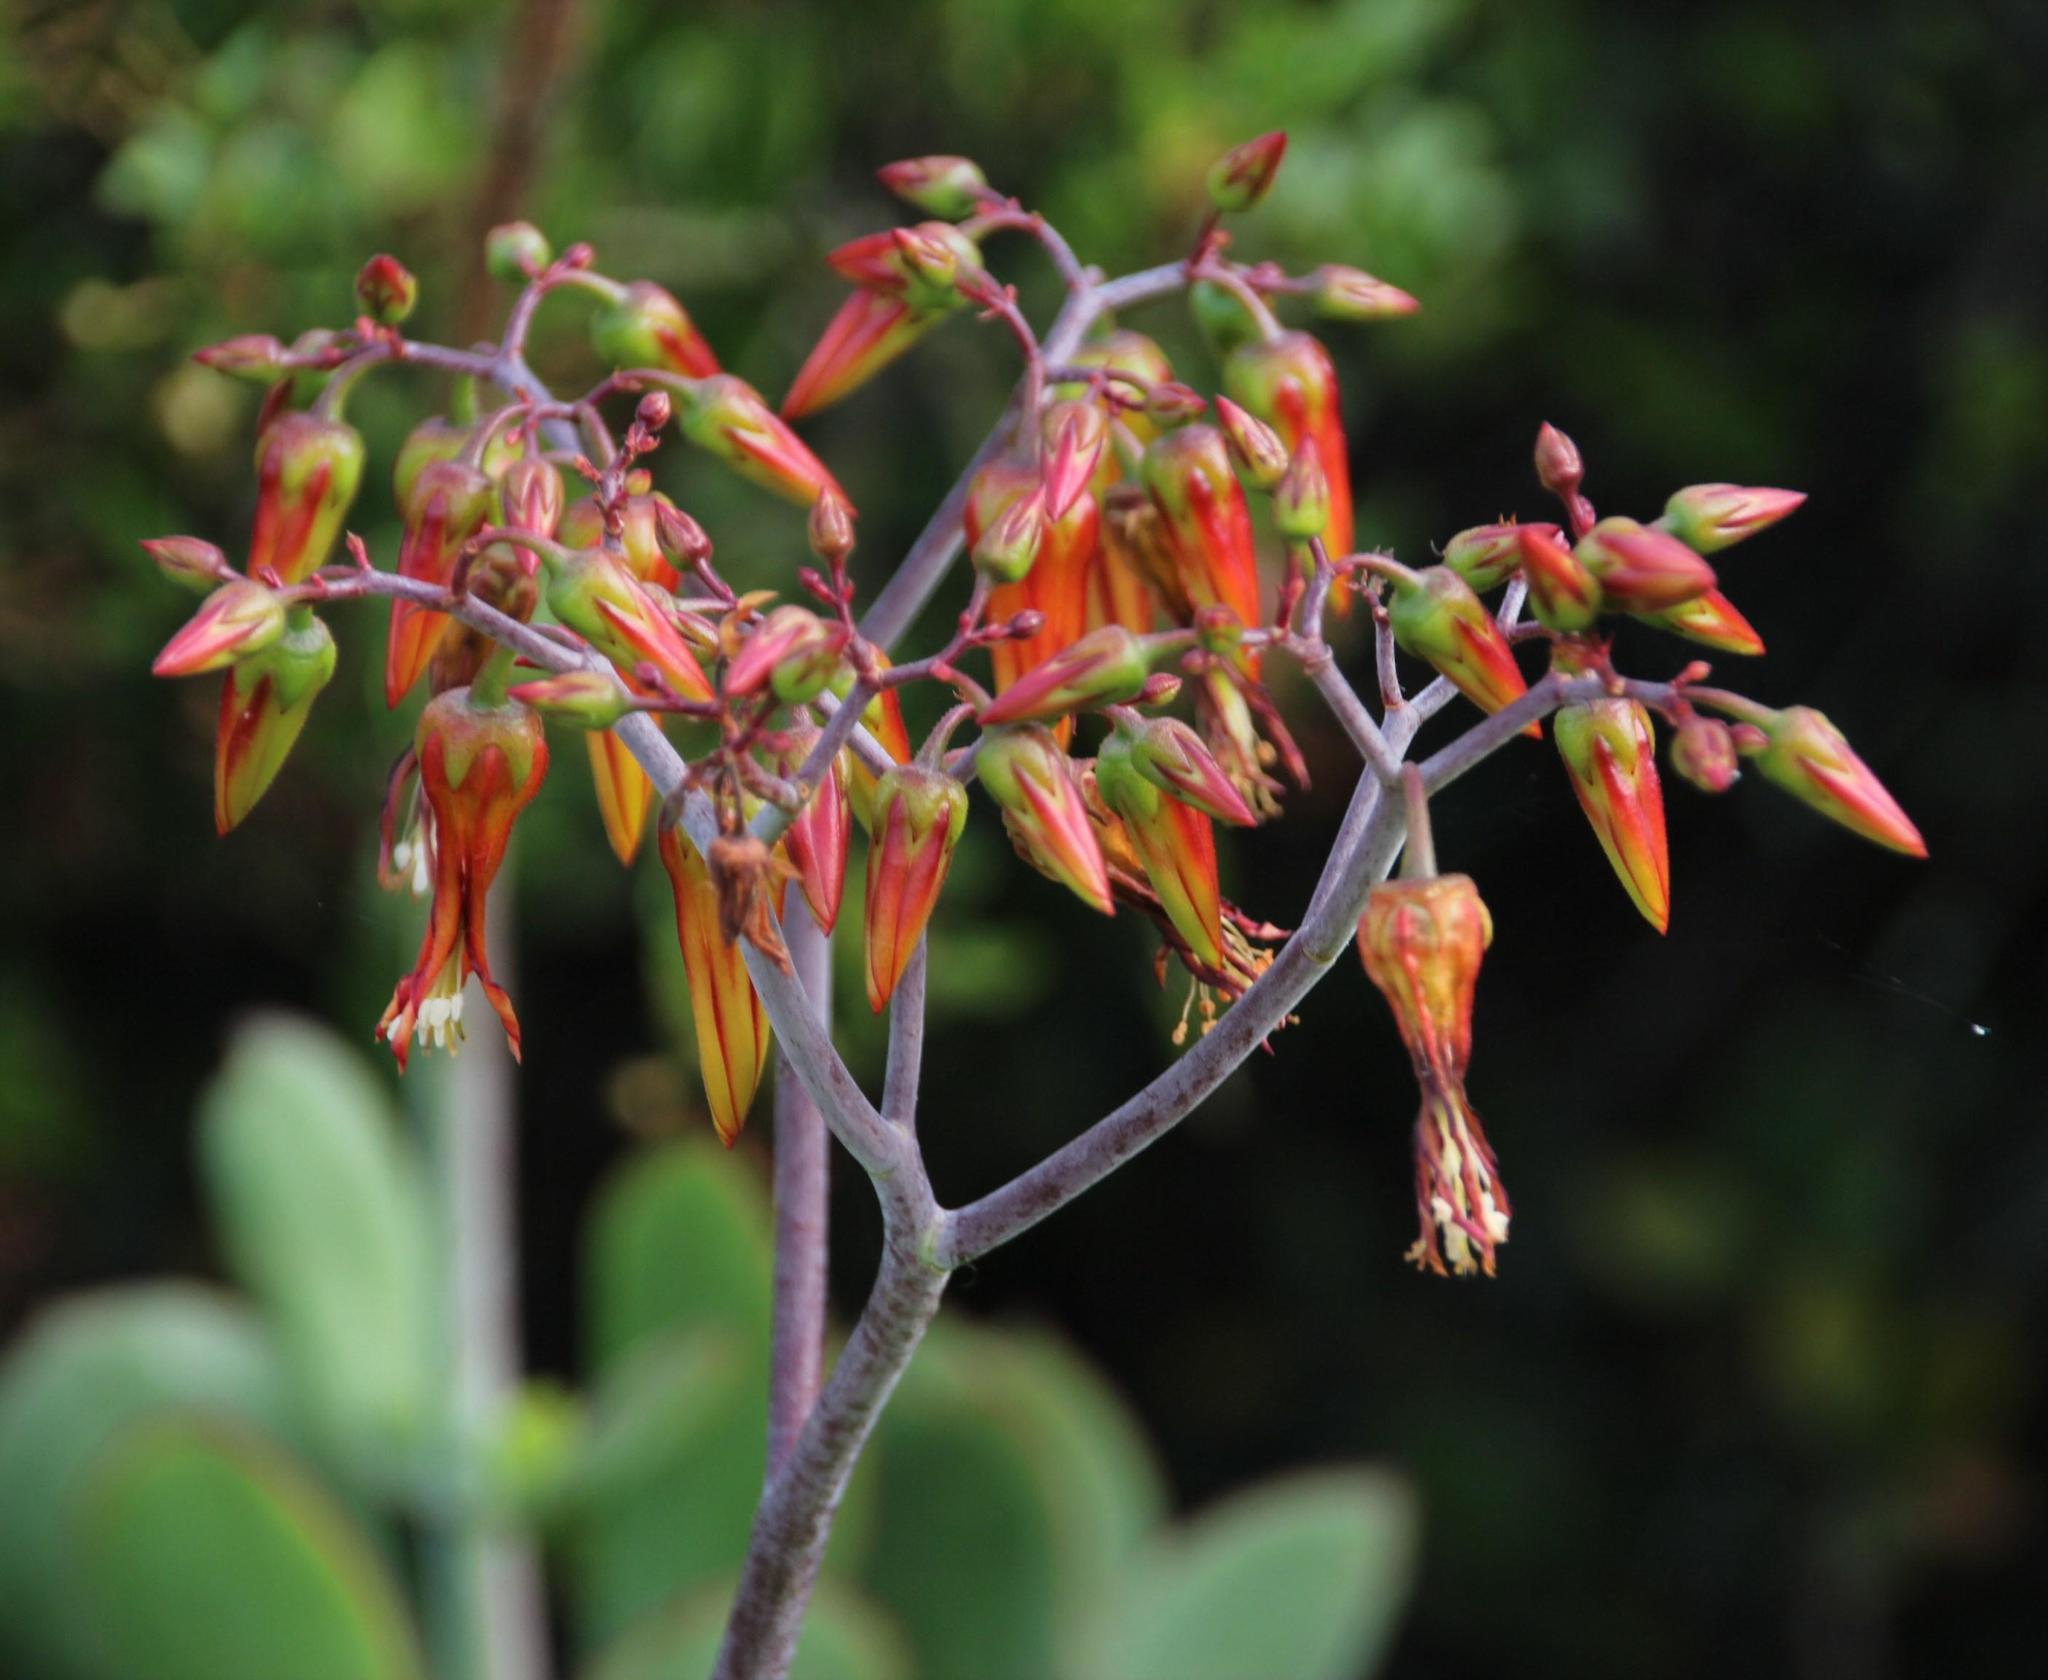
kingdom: Plantae
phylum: Tracheophyta
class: Magnoliopsida
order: Saxifragales
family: Crassulaceae
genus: Cotyledon
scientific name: Cotyledon velutina
